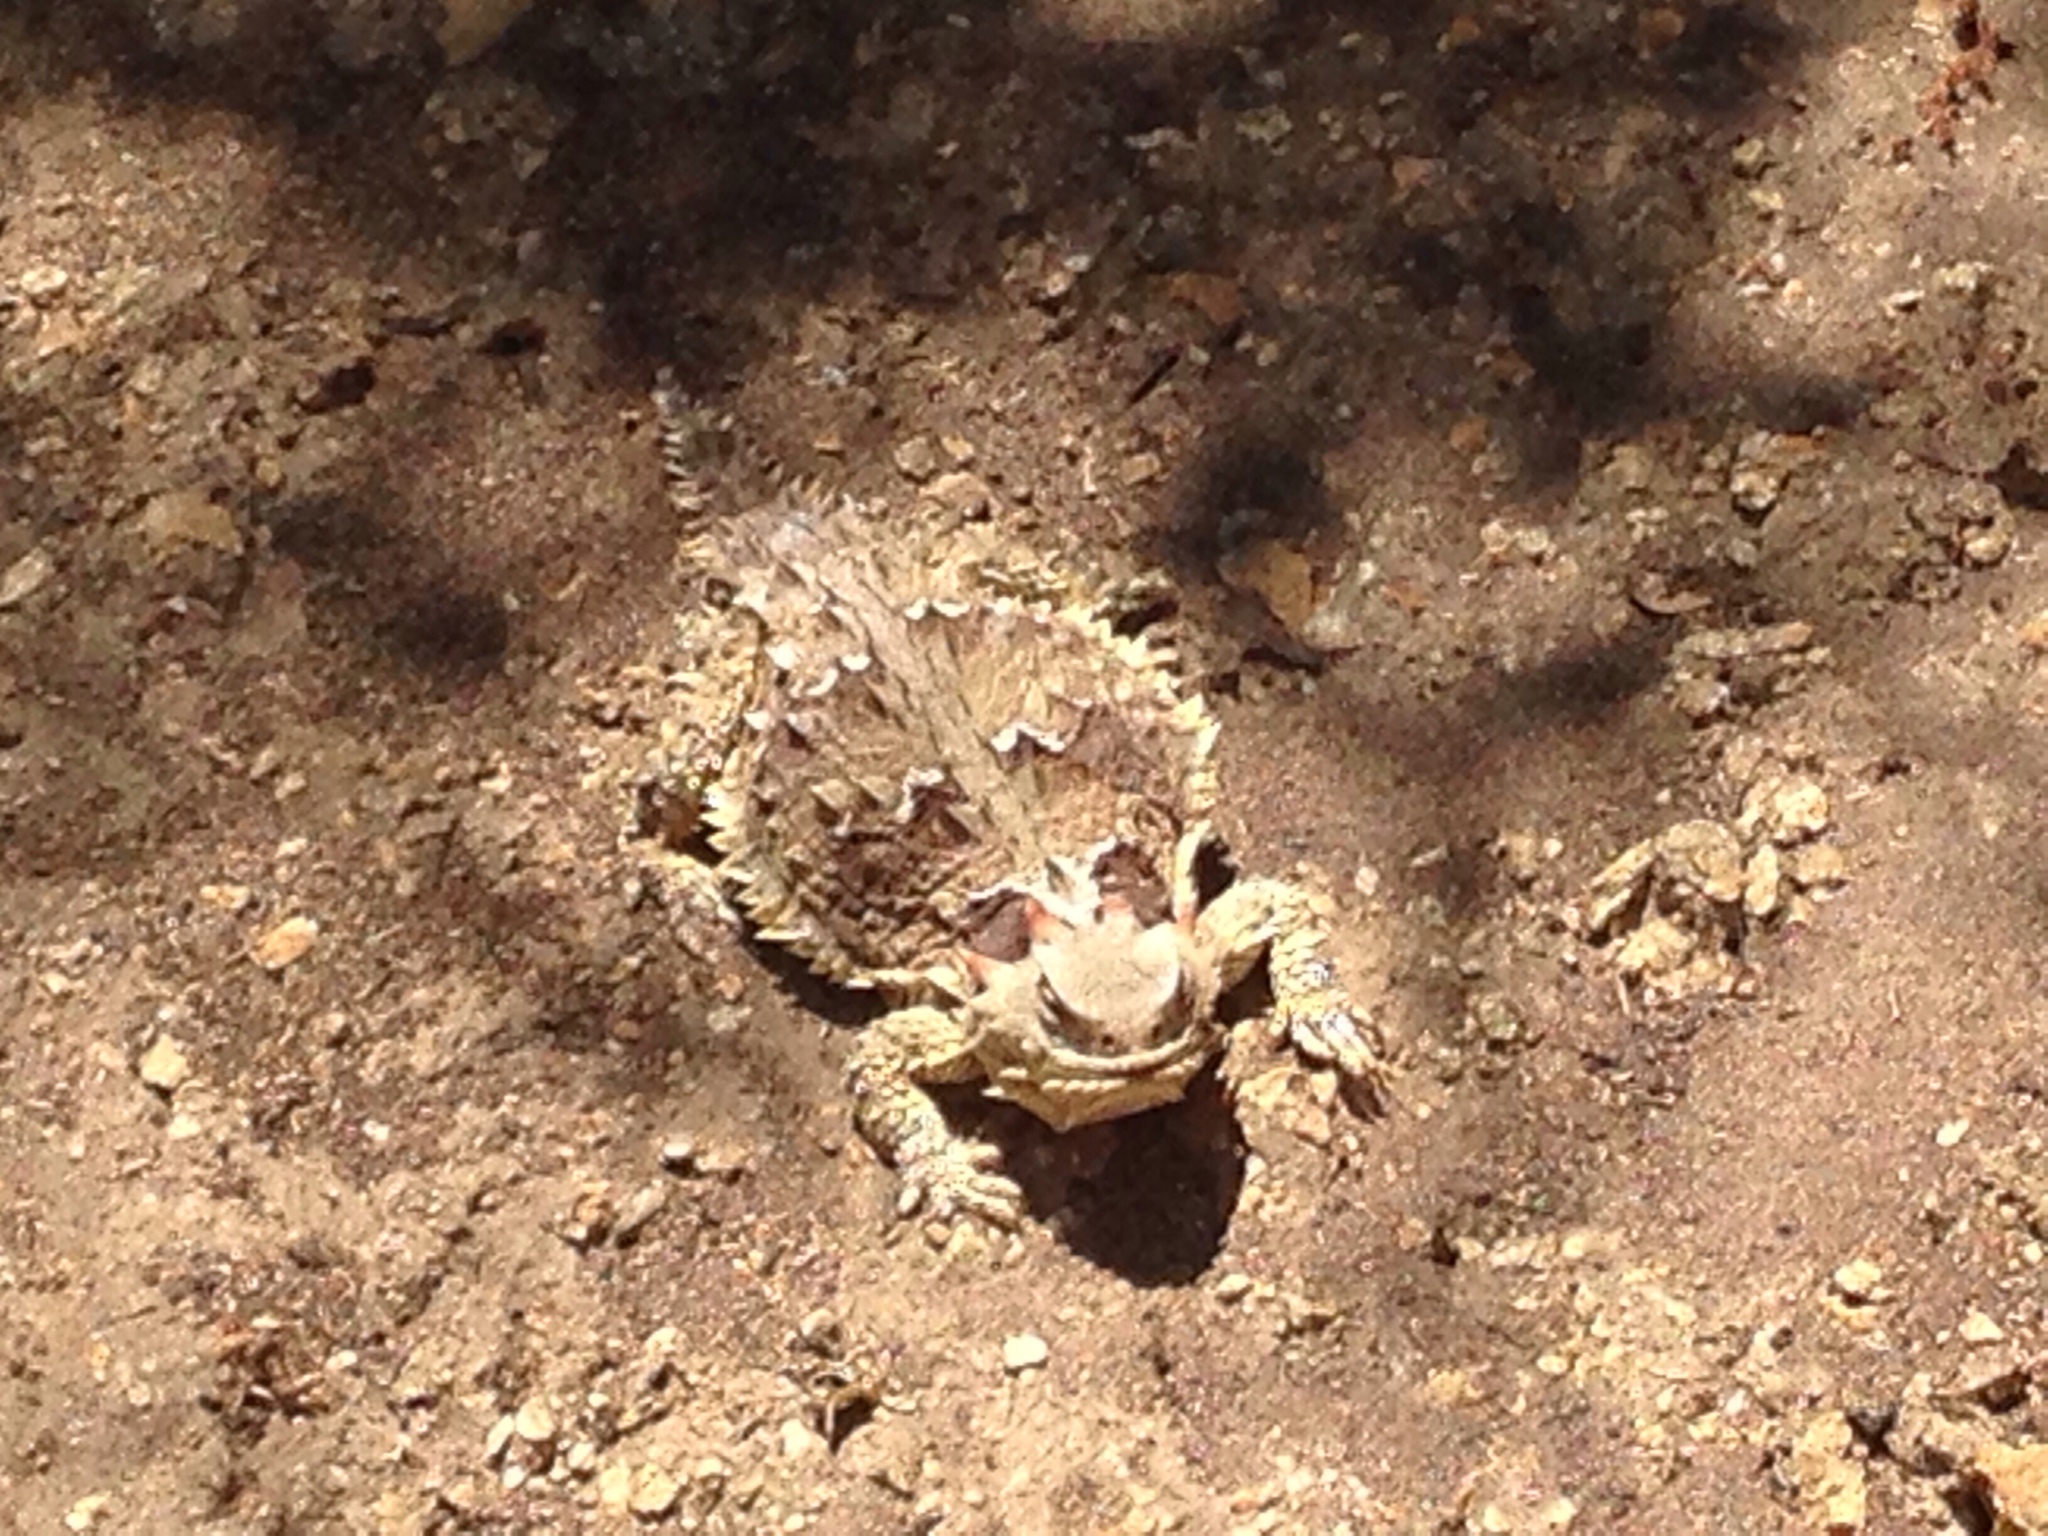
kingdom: Animalia
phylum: Chordata
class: Squamata
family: Phrynosomatidae
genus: Phrynosoma
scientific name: Phrynosoma blainvillii
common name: San diego horned lizard
